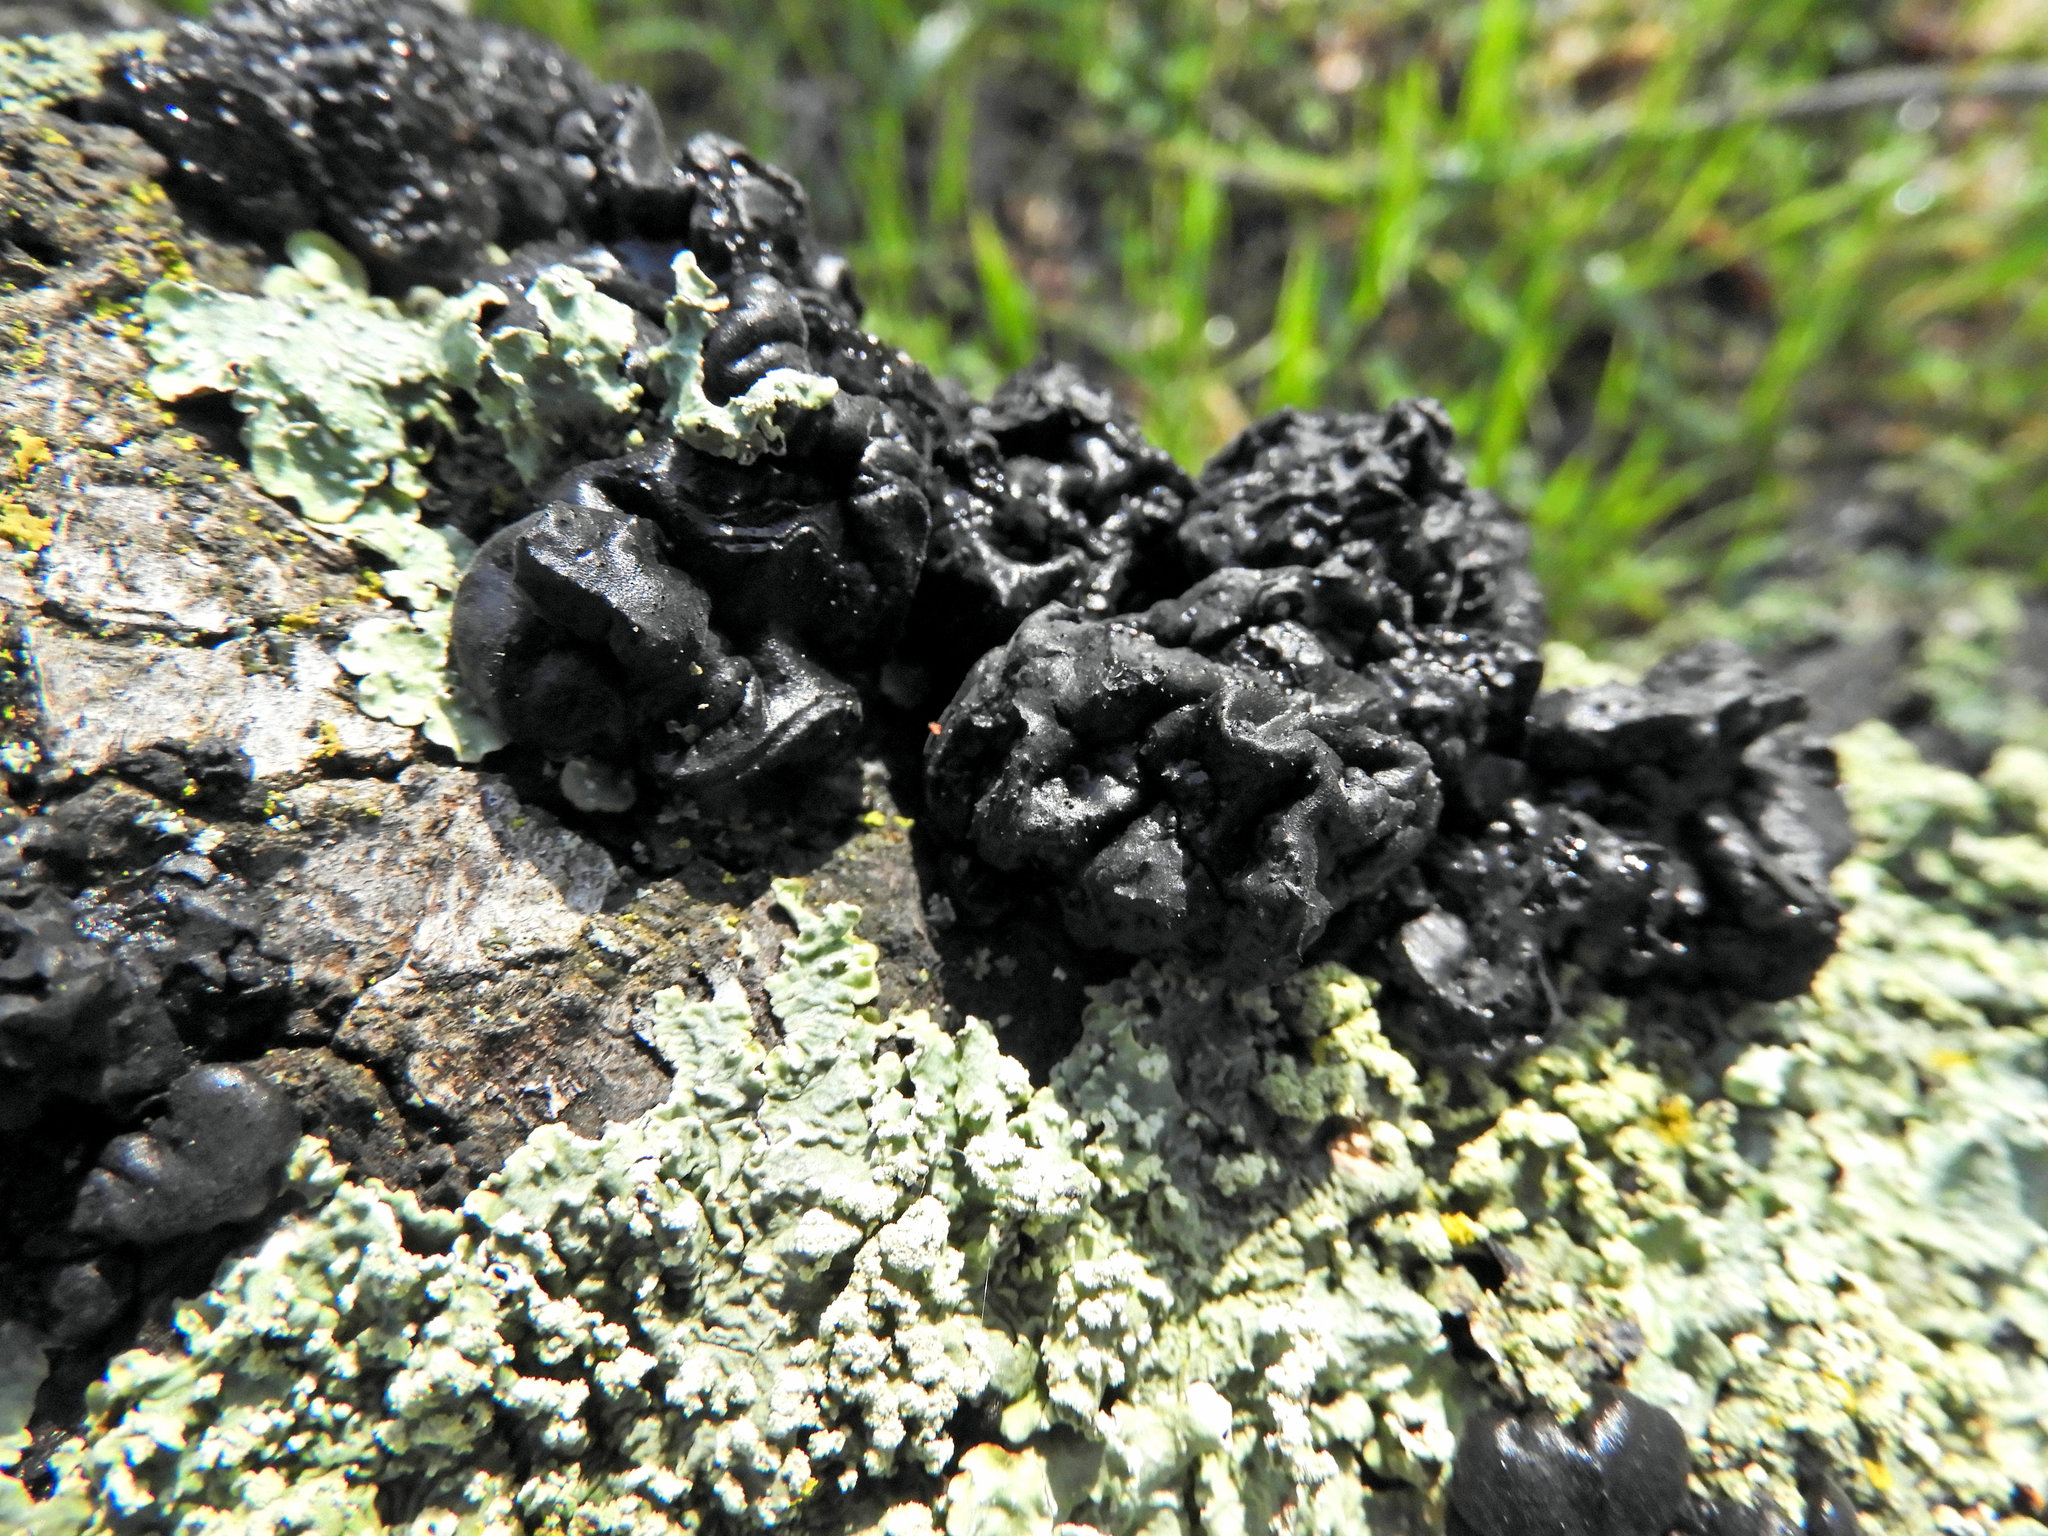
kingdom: Fungi
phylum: Basidiomycota
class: Agaricomycetes
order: Auriculariales
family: Auriculariaceae
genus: Exidia
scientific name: Exidia glandulosa
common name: Witches' butter
